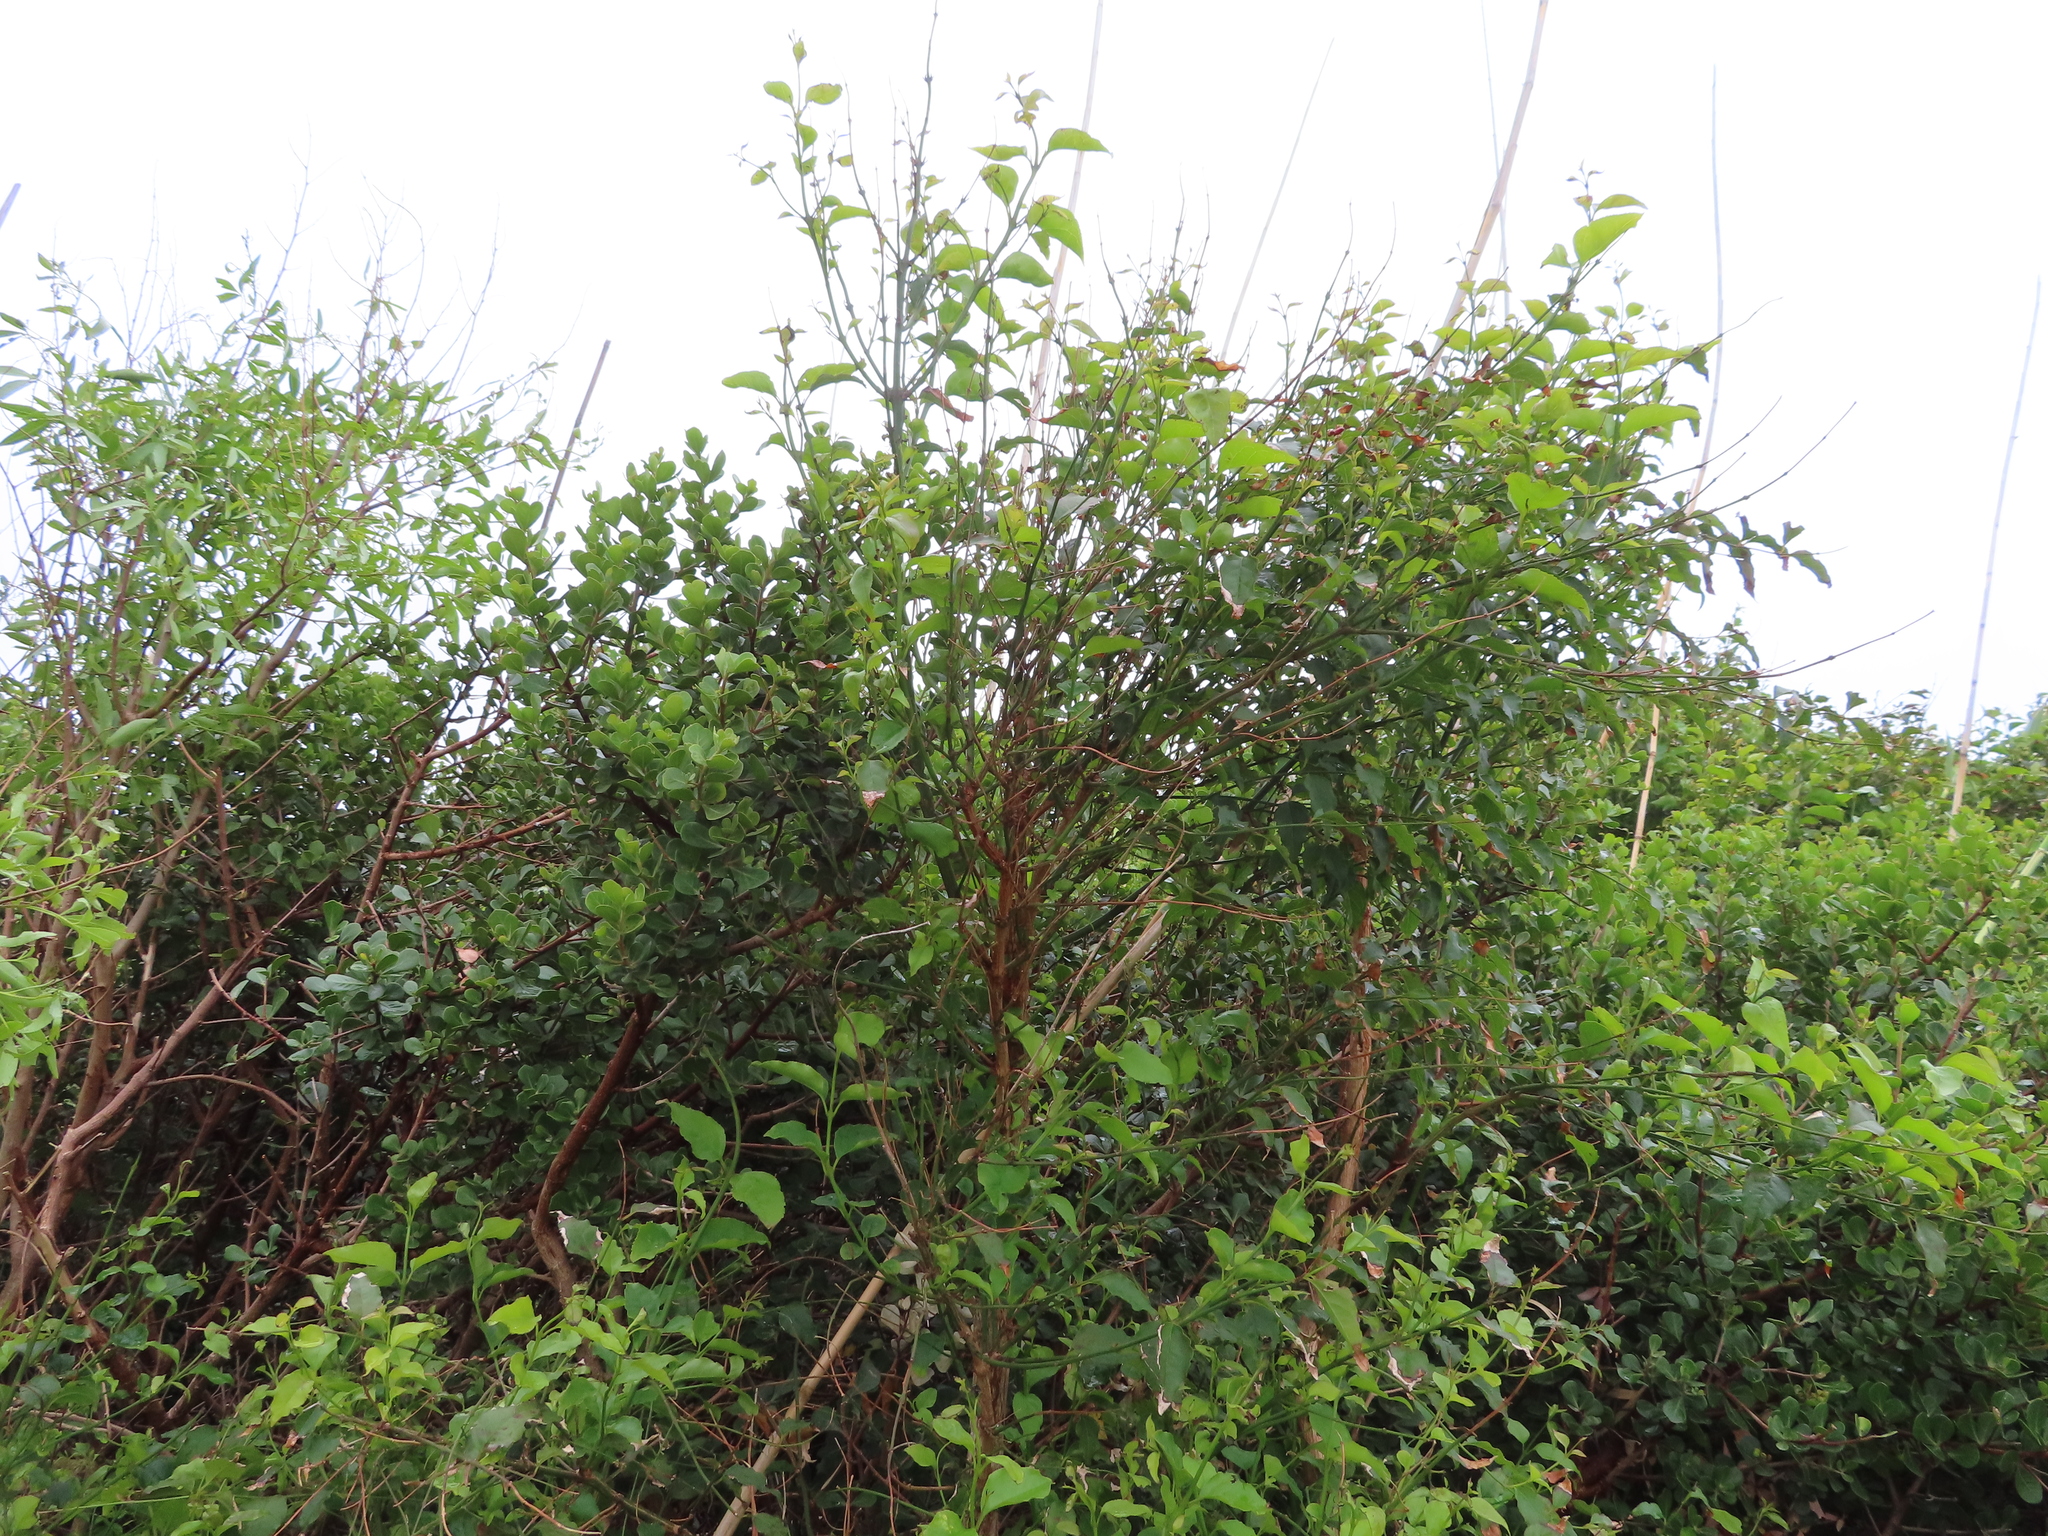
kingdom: Plantae
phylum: Tracheophyta
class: Magnoliopsida
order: Lamiales
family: Stilbaceae
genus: Halleria
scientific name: Halleria lucida
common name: Tree fuschia
